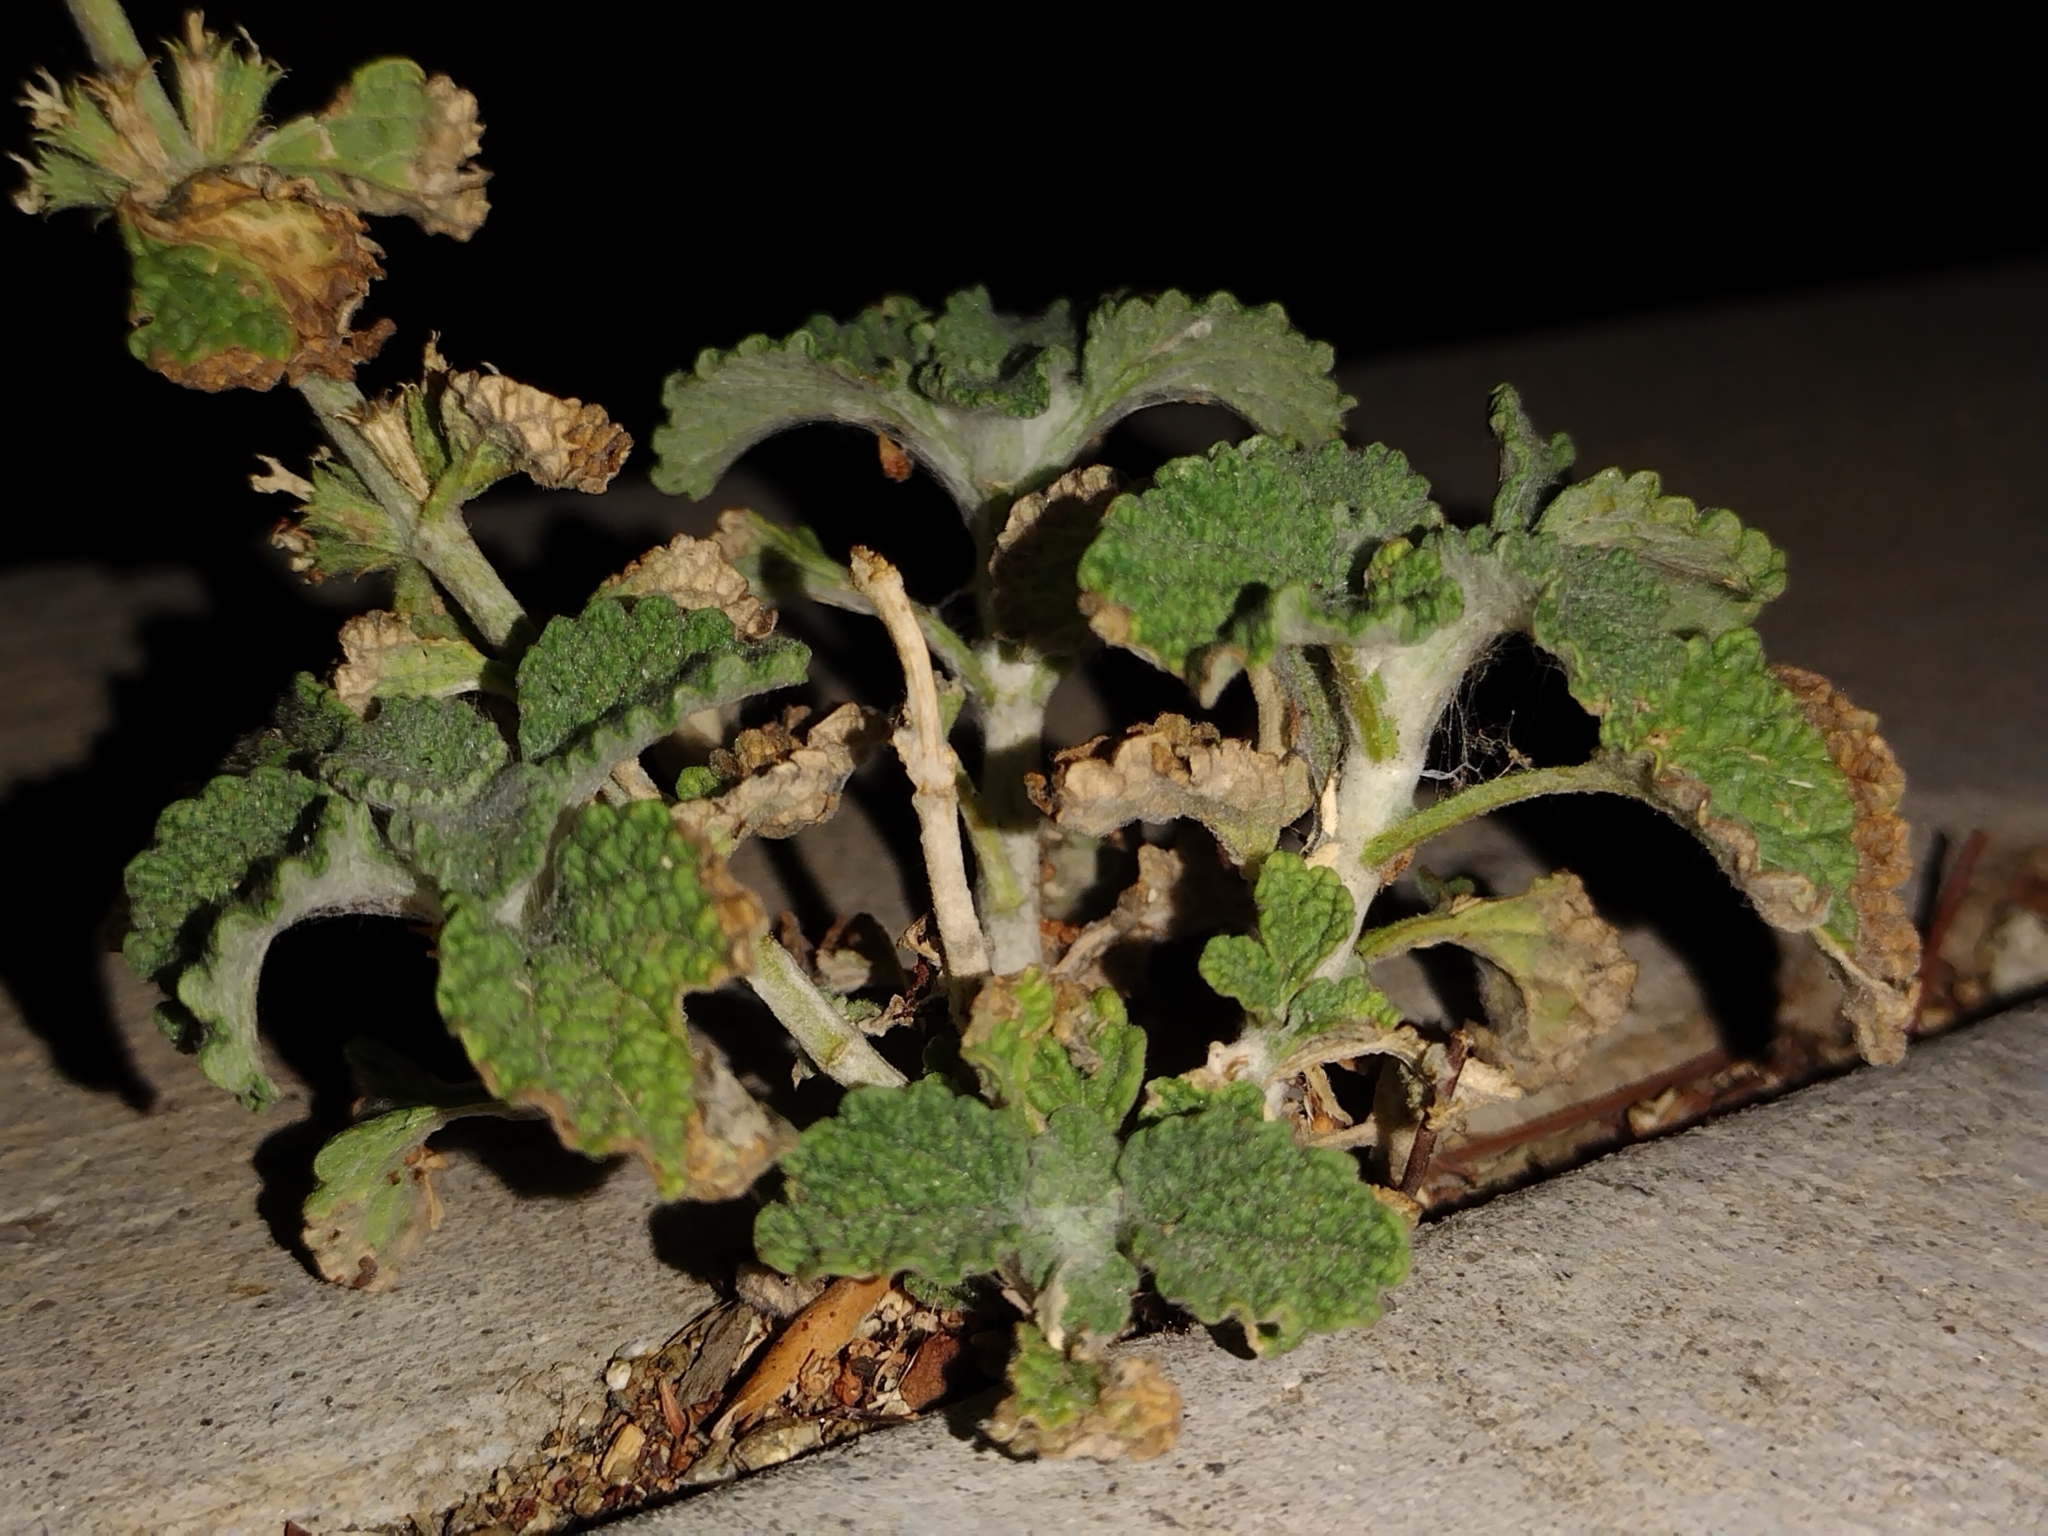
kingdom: Plantae
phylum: Tracheophyta
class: Magnoliopsida
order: Lamiales
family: Lamiaceae
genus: Marrubium
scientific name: Marrubium vulgare
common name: Horehound
